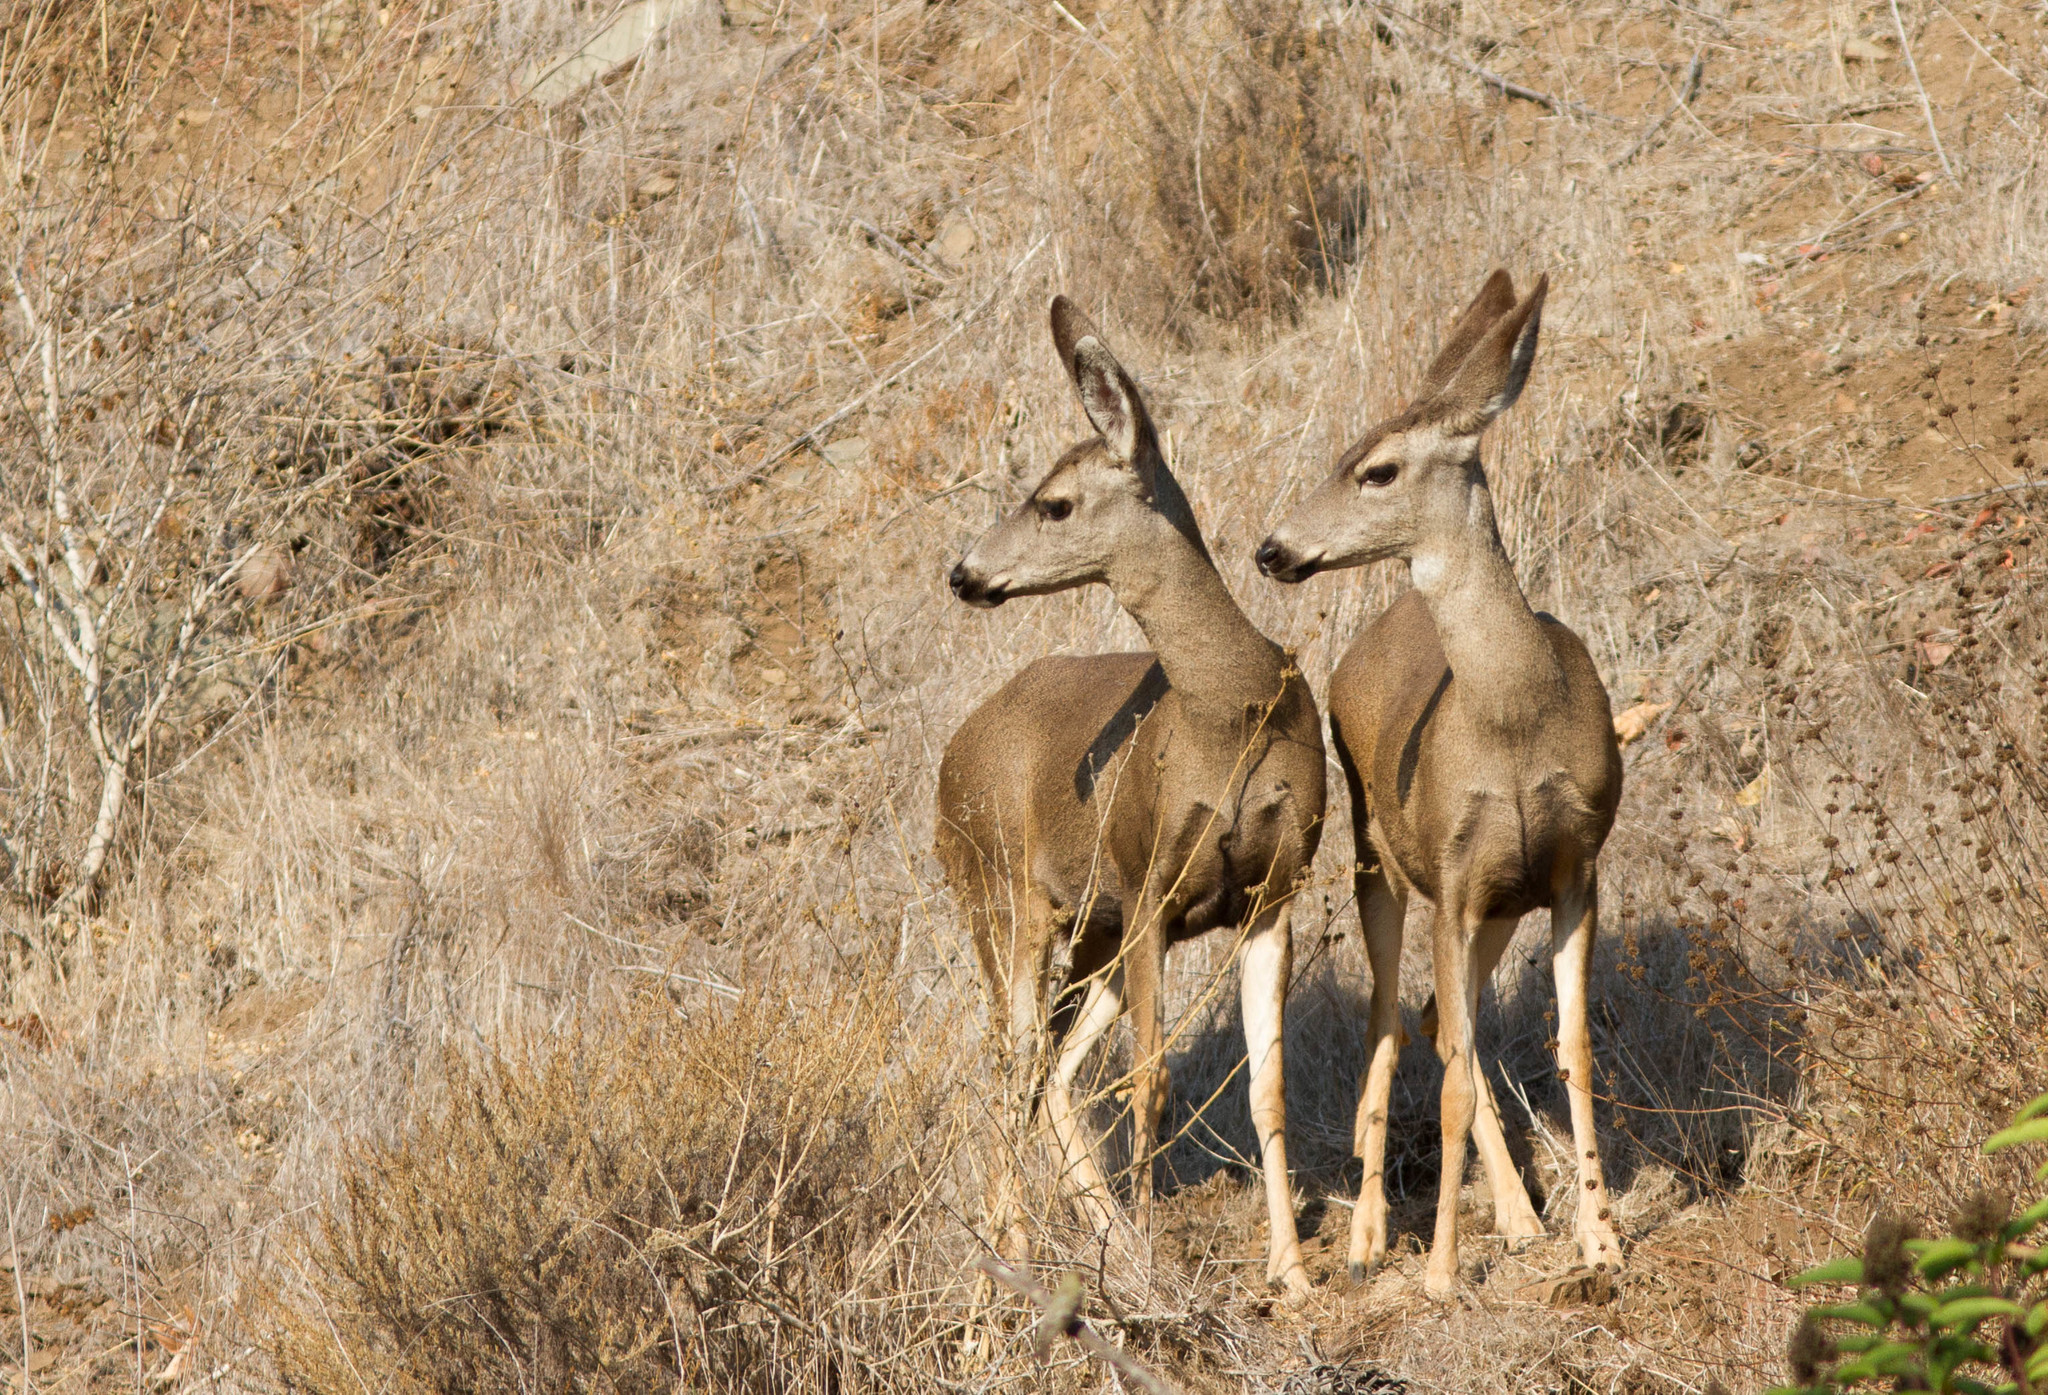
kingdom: Animalia
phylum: Chordata
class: Mammalia
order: Artiodactyla
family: Cervidae
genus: Odocoileus
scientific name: Odocoileus hemionus
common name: Mule deer
